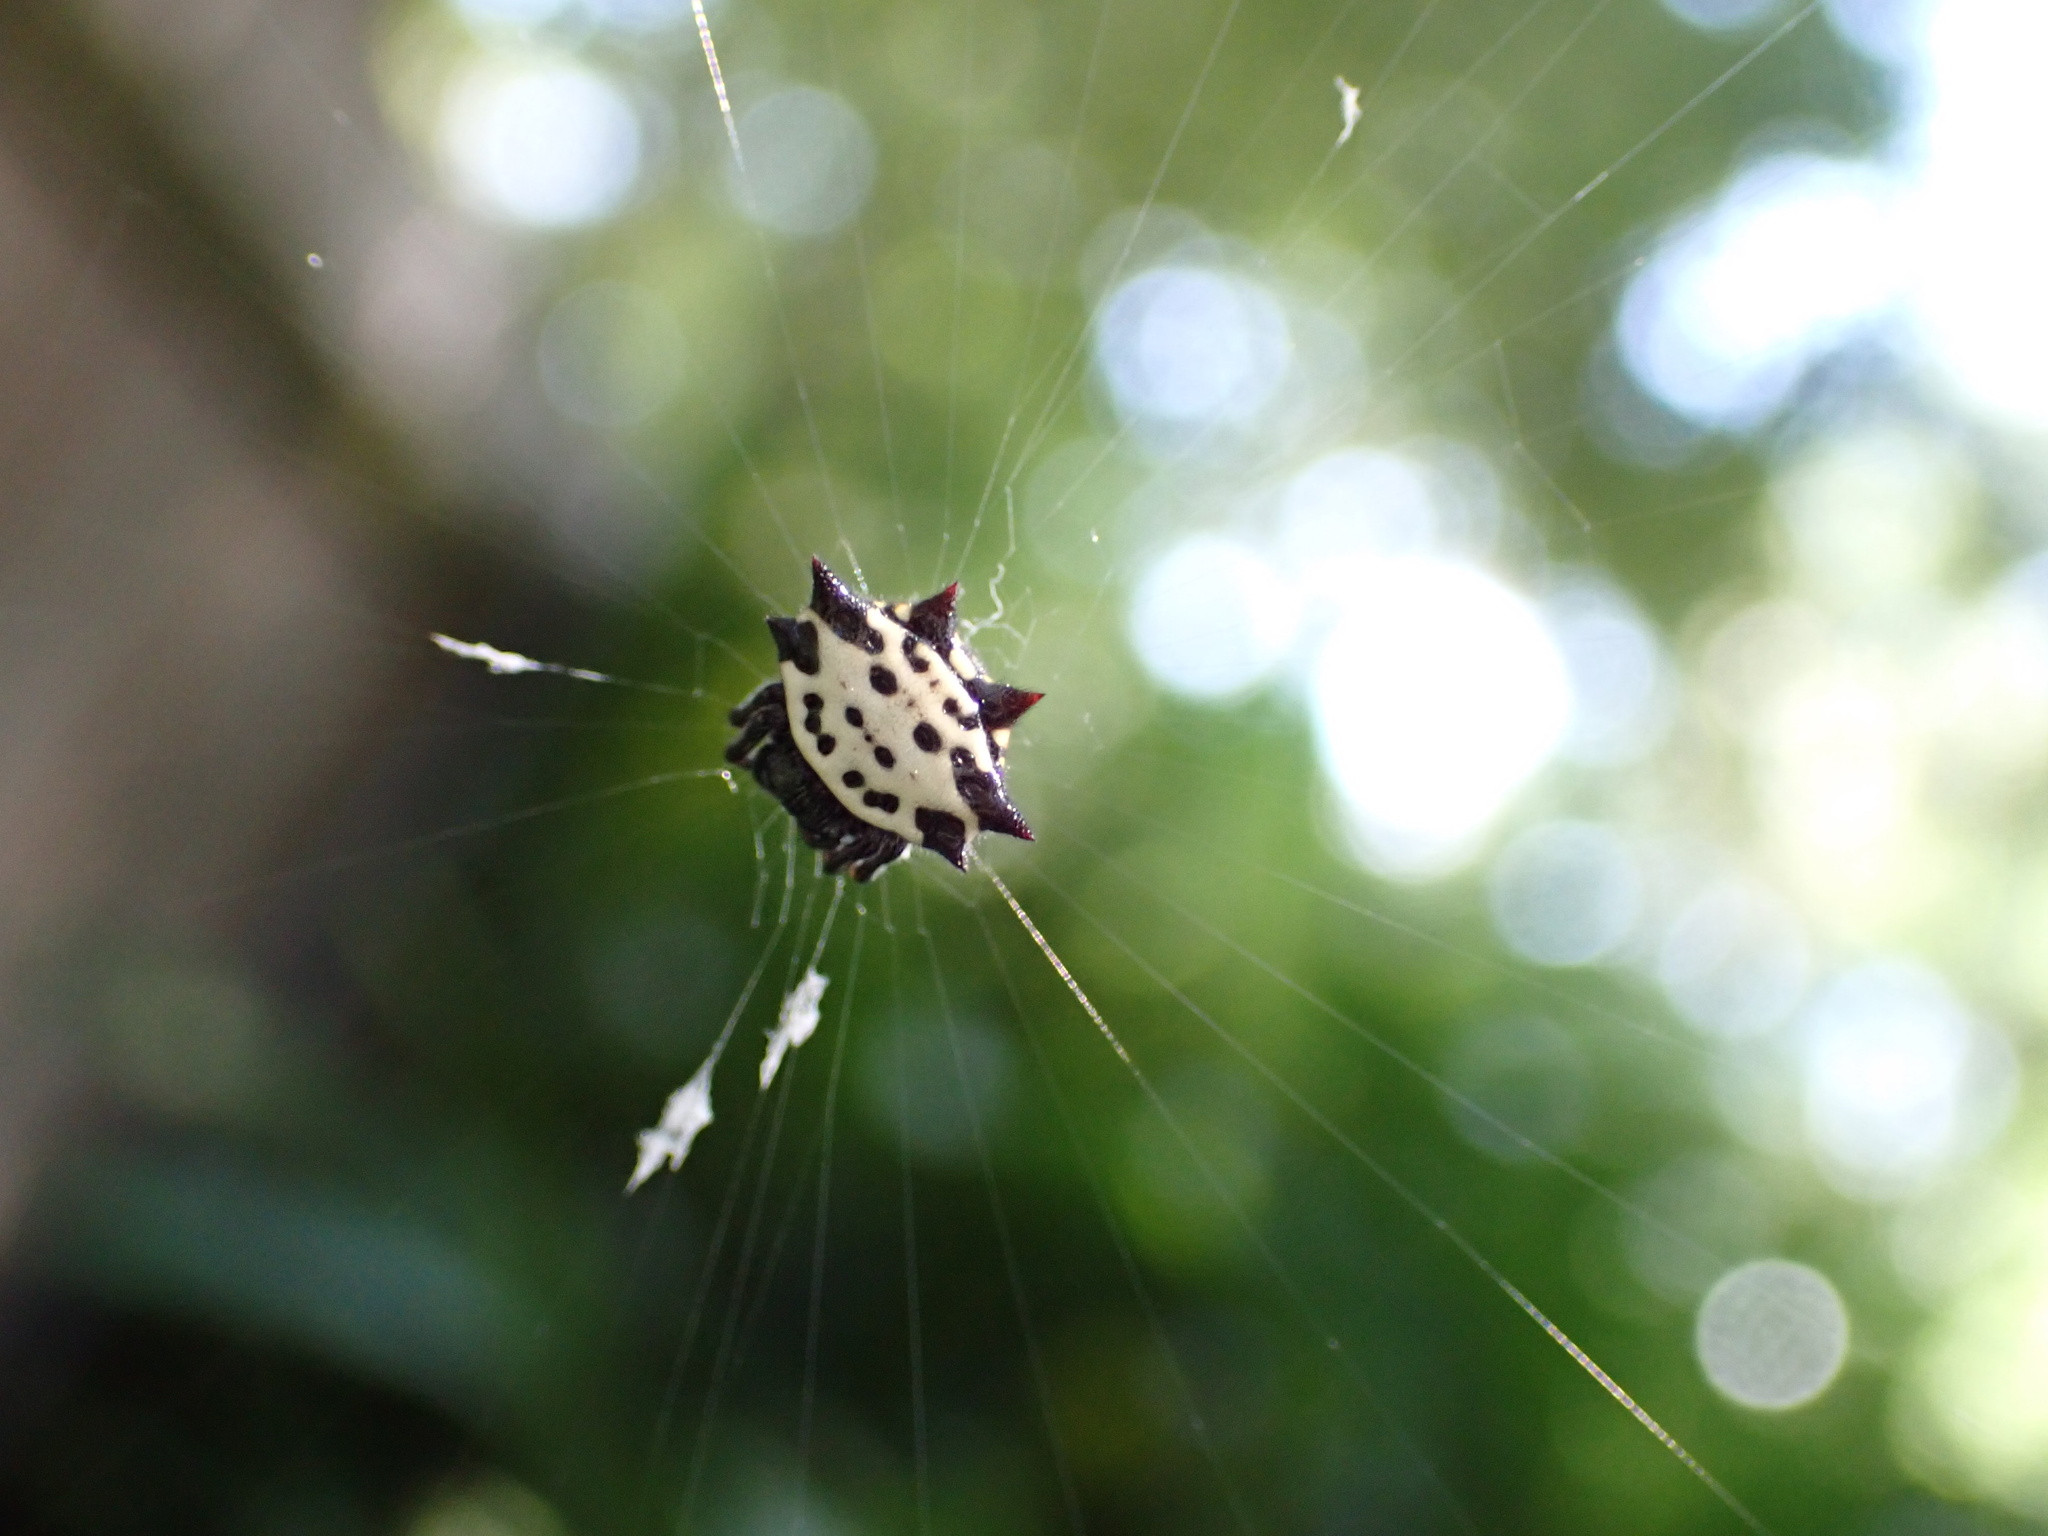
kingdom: Animalia
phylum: Arthropoda
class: Arachnida
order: Araneae
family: Araneidae
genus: Gasteracantha
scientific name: Gasteracantha cancriformis
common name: Orb weavers
